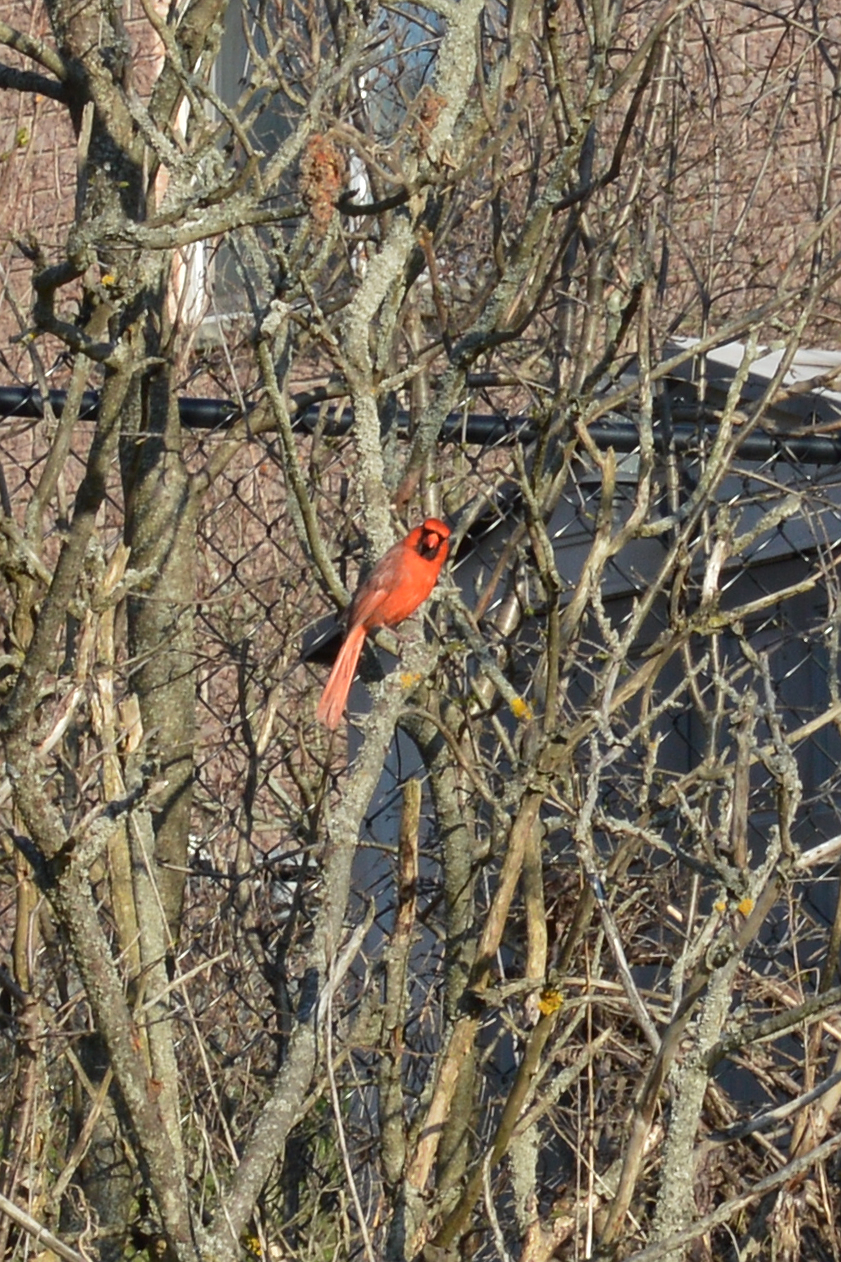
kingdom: Animalia
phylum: Chordata
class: Aves
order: Passeriformes
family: Cardinalidae
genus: Cardinalis
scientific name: Cardinalis cardinalis
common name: Northern cardinal
